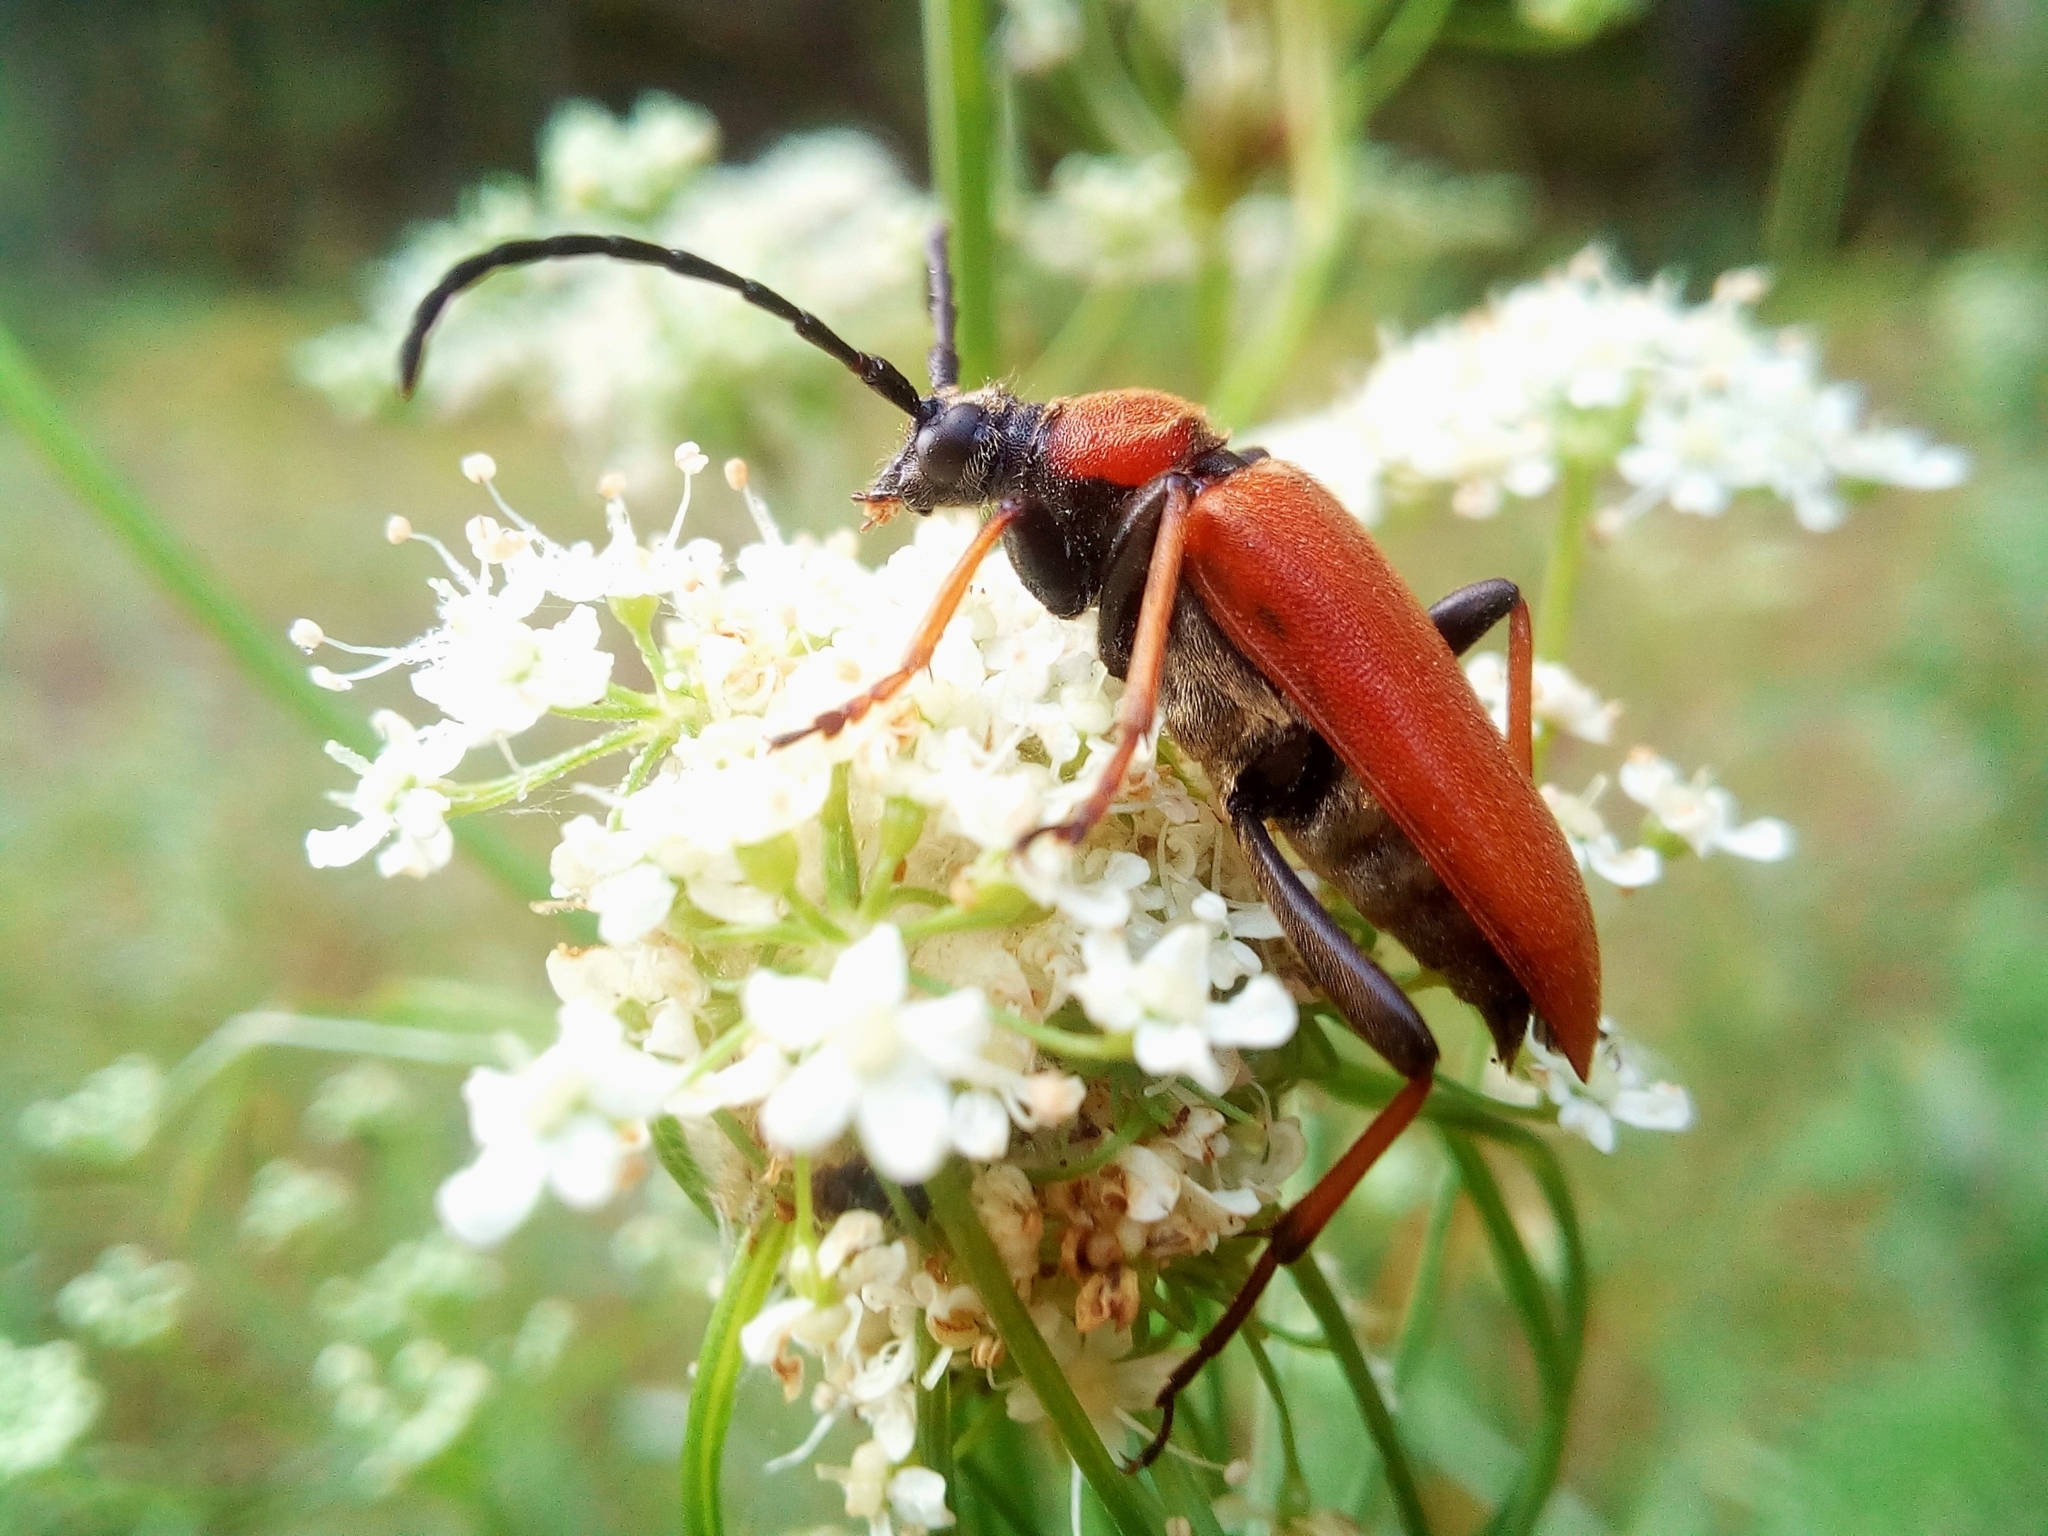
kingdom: Animalia
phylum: Arthropoda
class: Insecta
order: Coleoptera
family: Cerambycidae
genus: Stictoleptura
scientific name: Stictoleptura rubra
